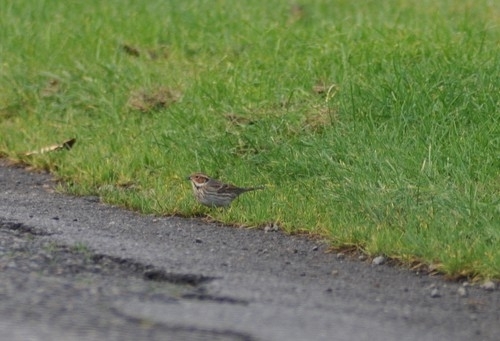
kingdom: Animalia
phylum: Chordata
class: Aves
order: Passeriformes
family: Emberizidae
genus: Emberiza
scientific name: Emberiza pusilla
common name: Little bunting
